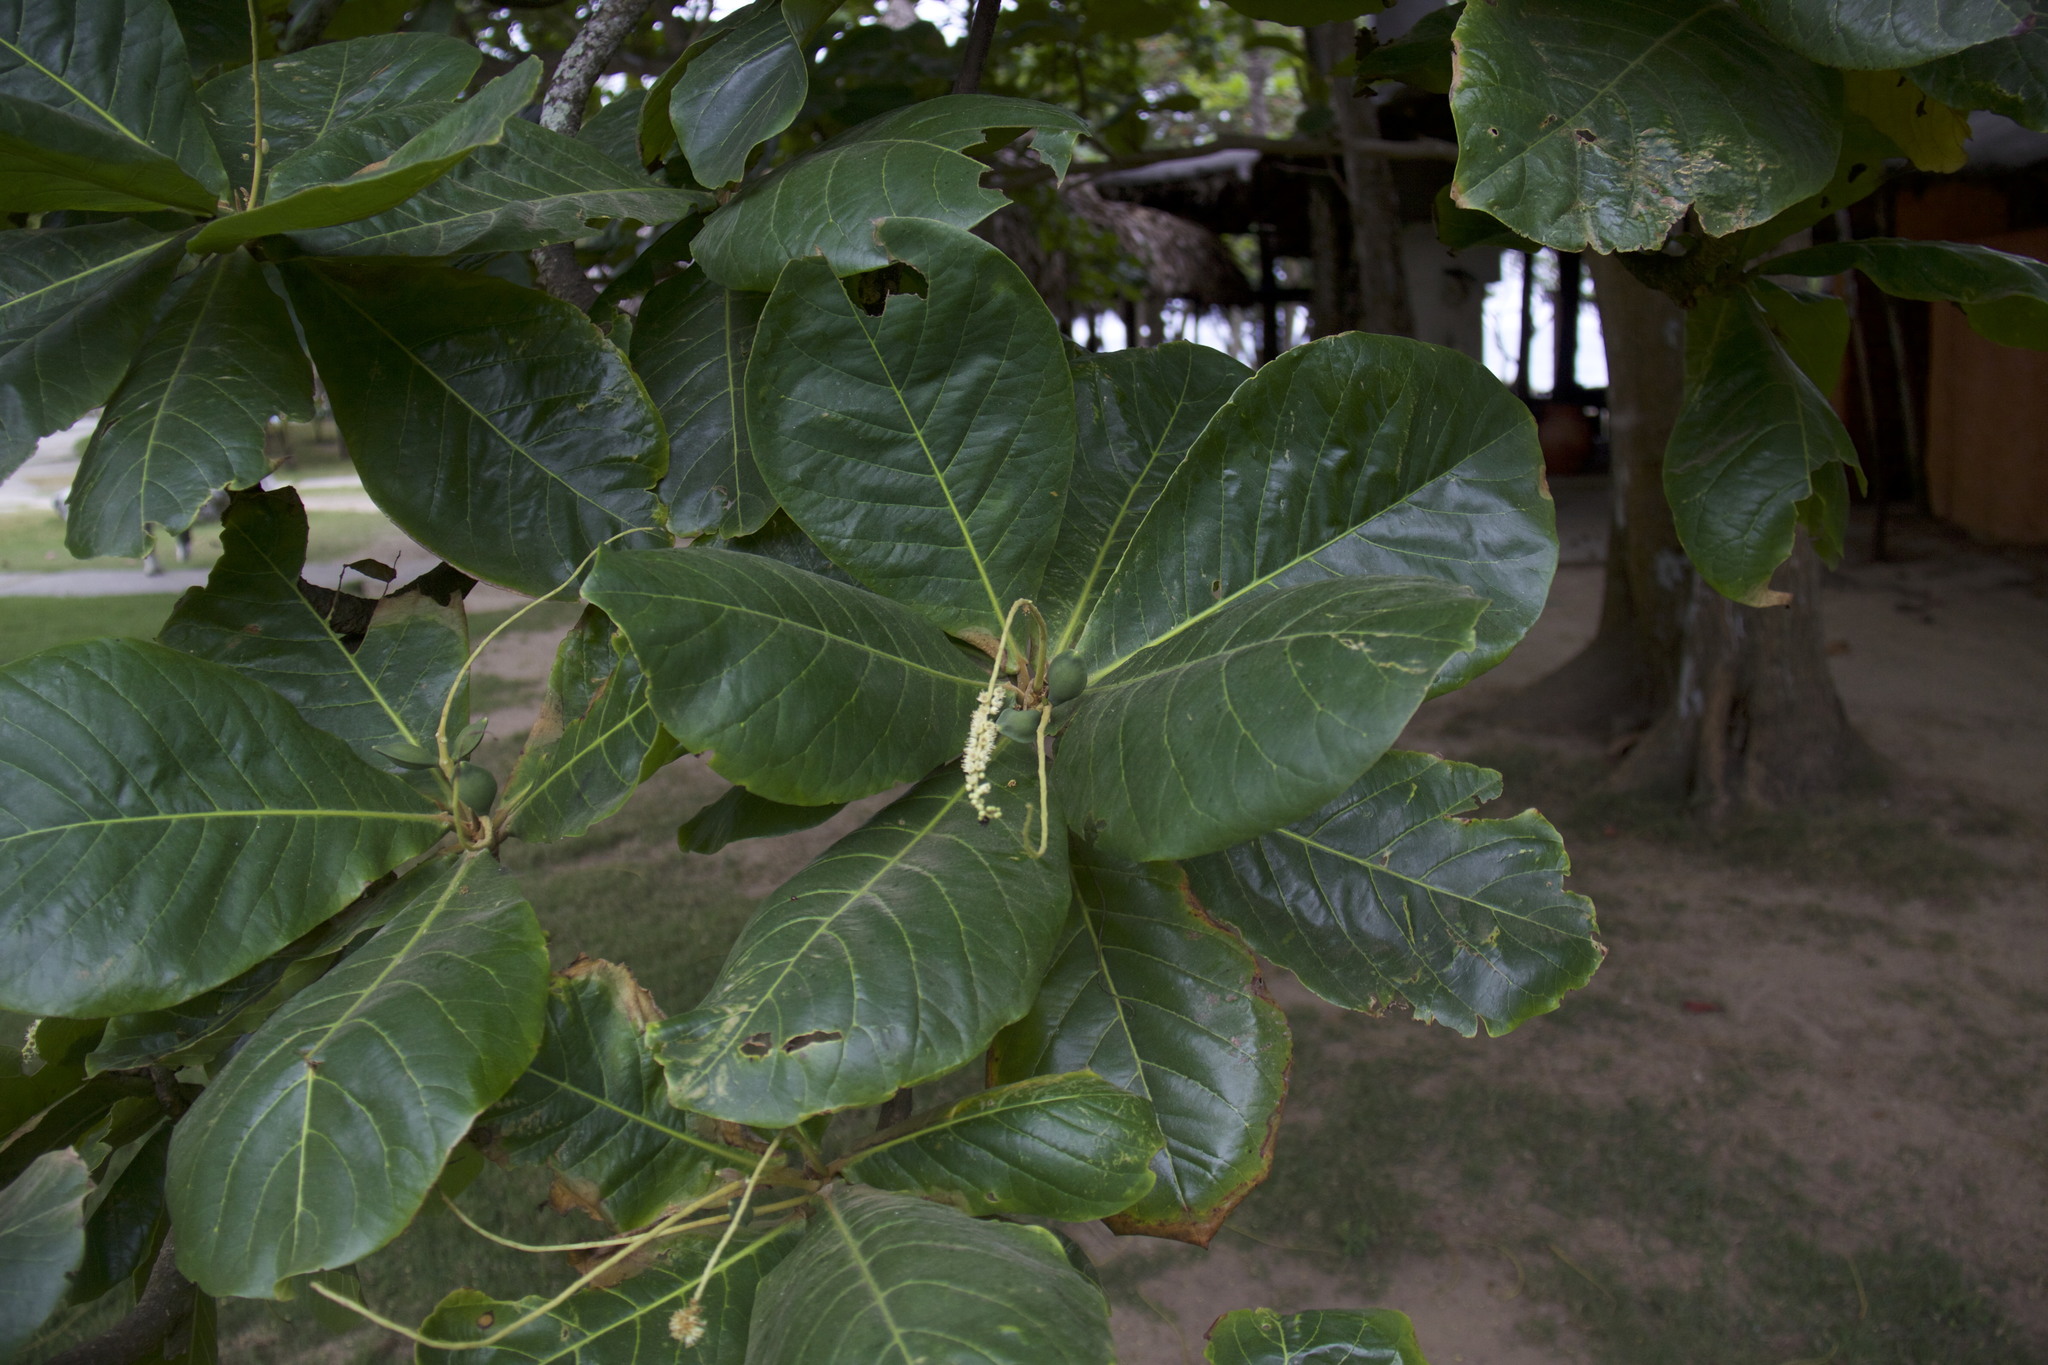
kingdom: Plantae
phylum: Tracheophyta
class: Magnoliopsida
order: Myrtales
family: Combretaceae
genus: Terminalia
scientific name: Terminalia catappa
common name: Tropical almond
